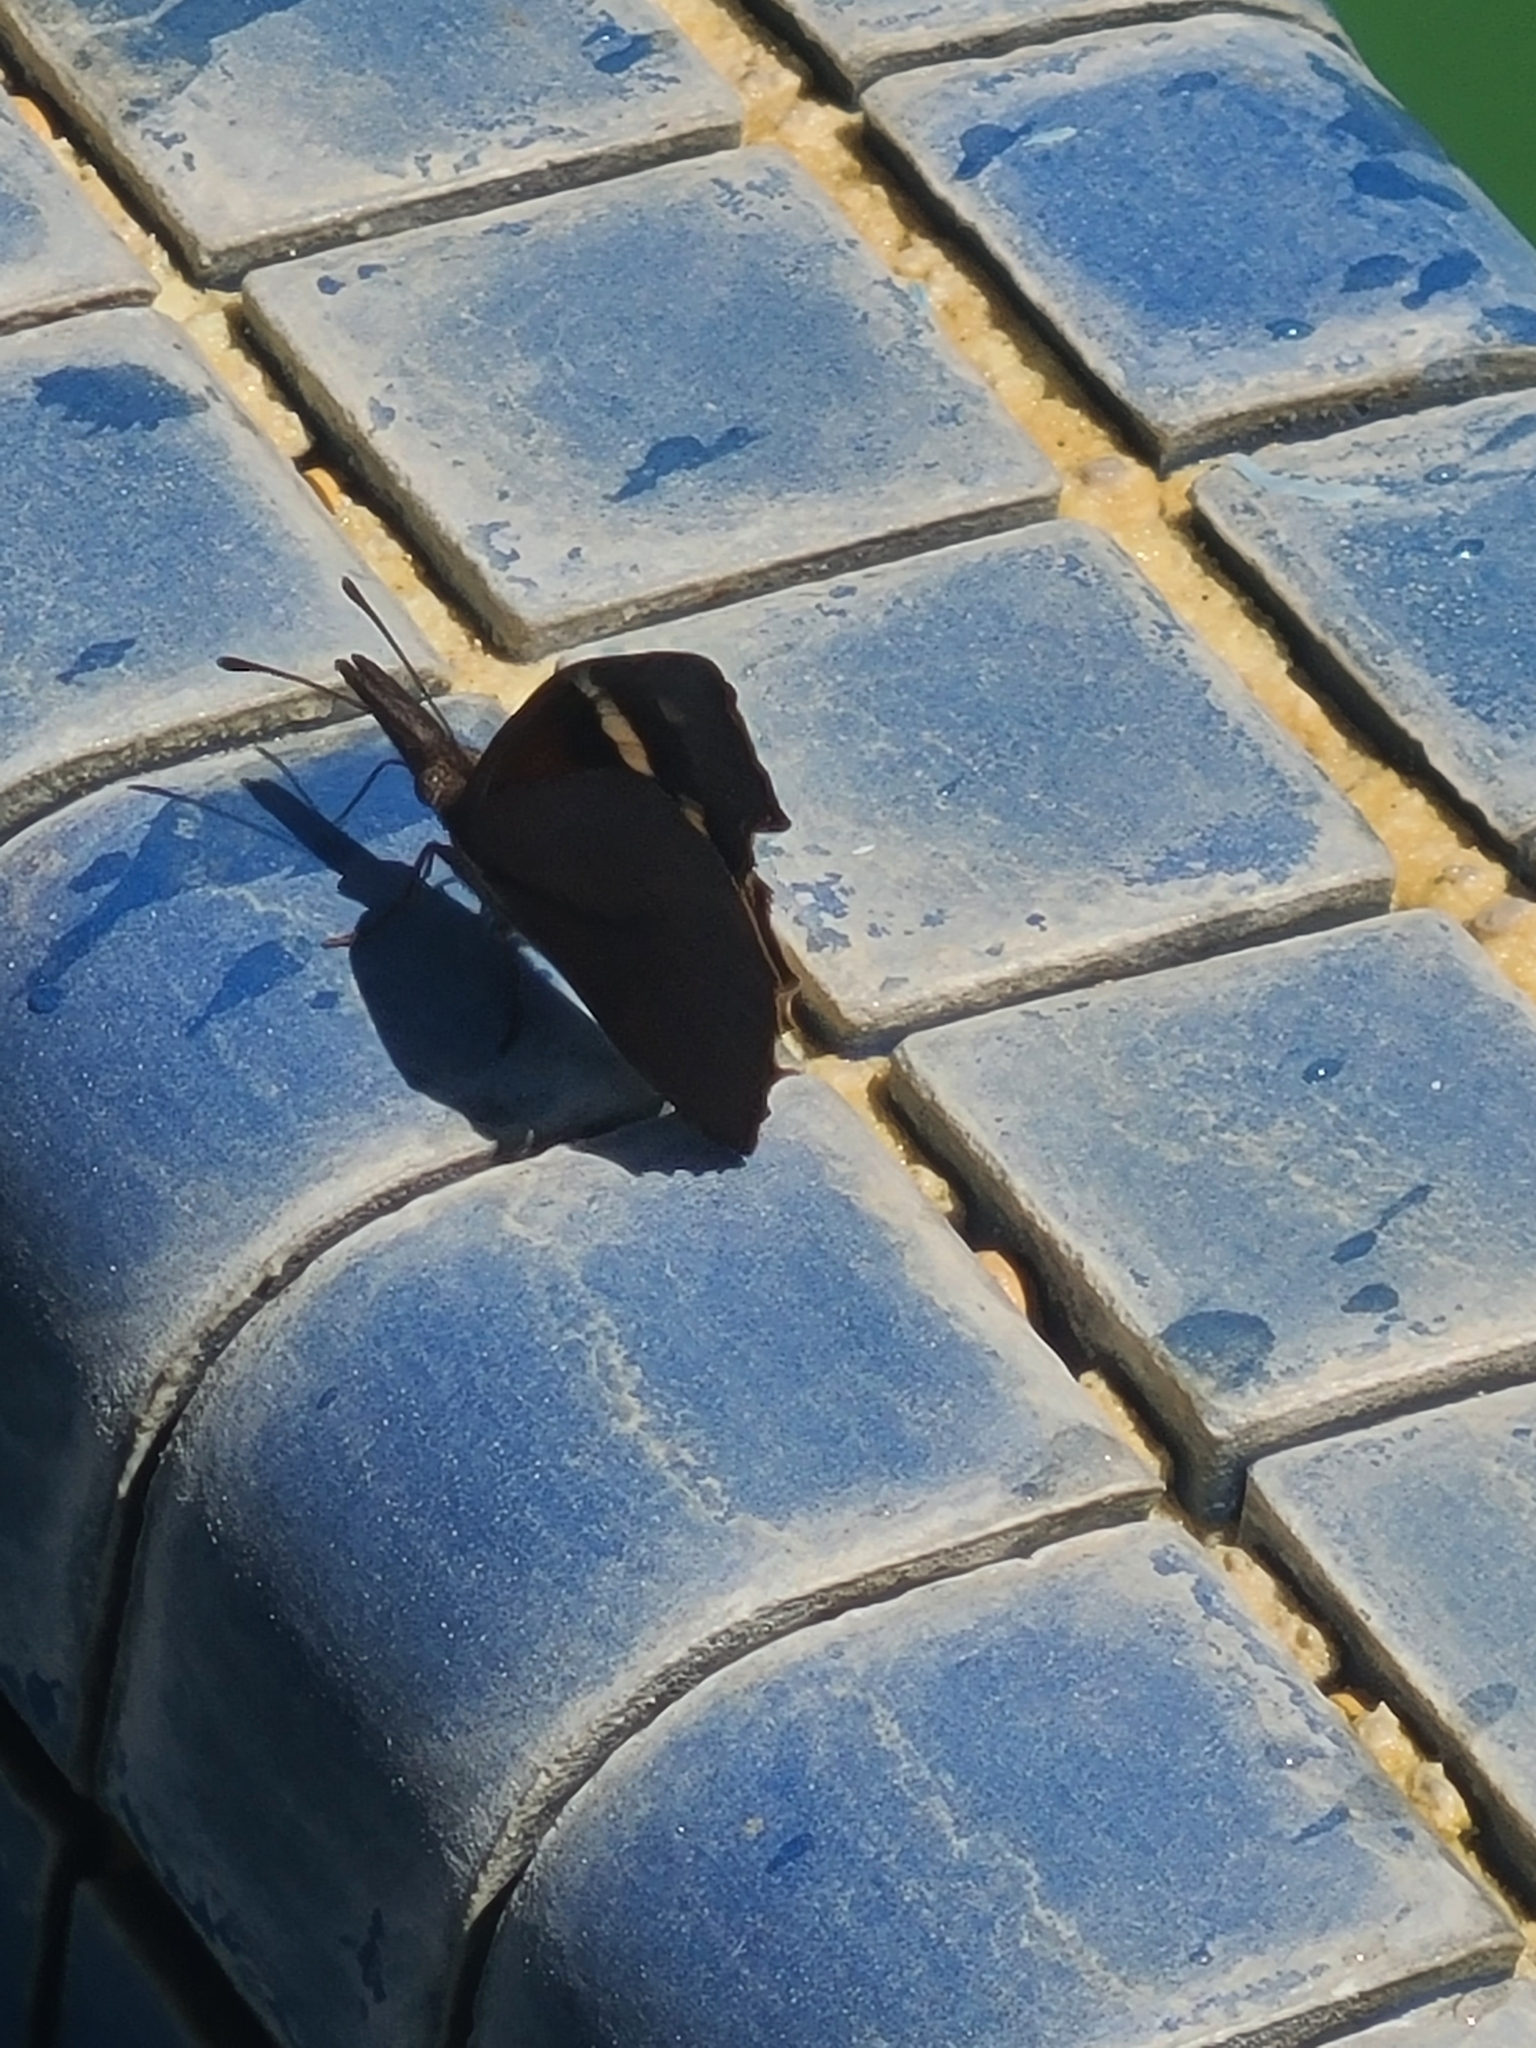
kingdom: Animalia
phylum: Arthropoda
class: Insecta
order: Lepidoptera
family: Nymphalidae
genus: Libytheana
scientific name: Libytheana carinenta
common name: American snout
